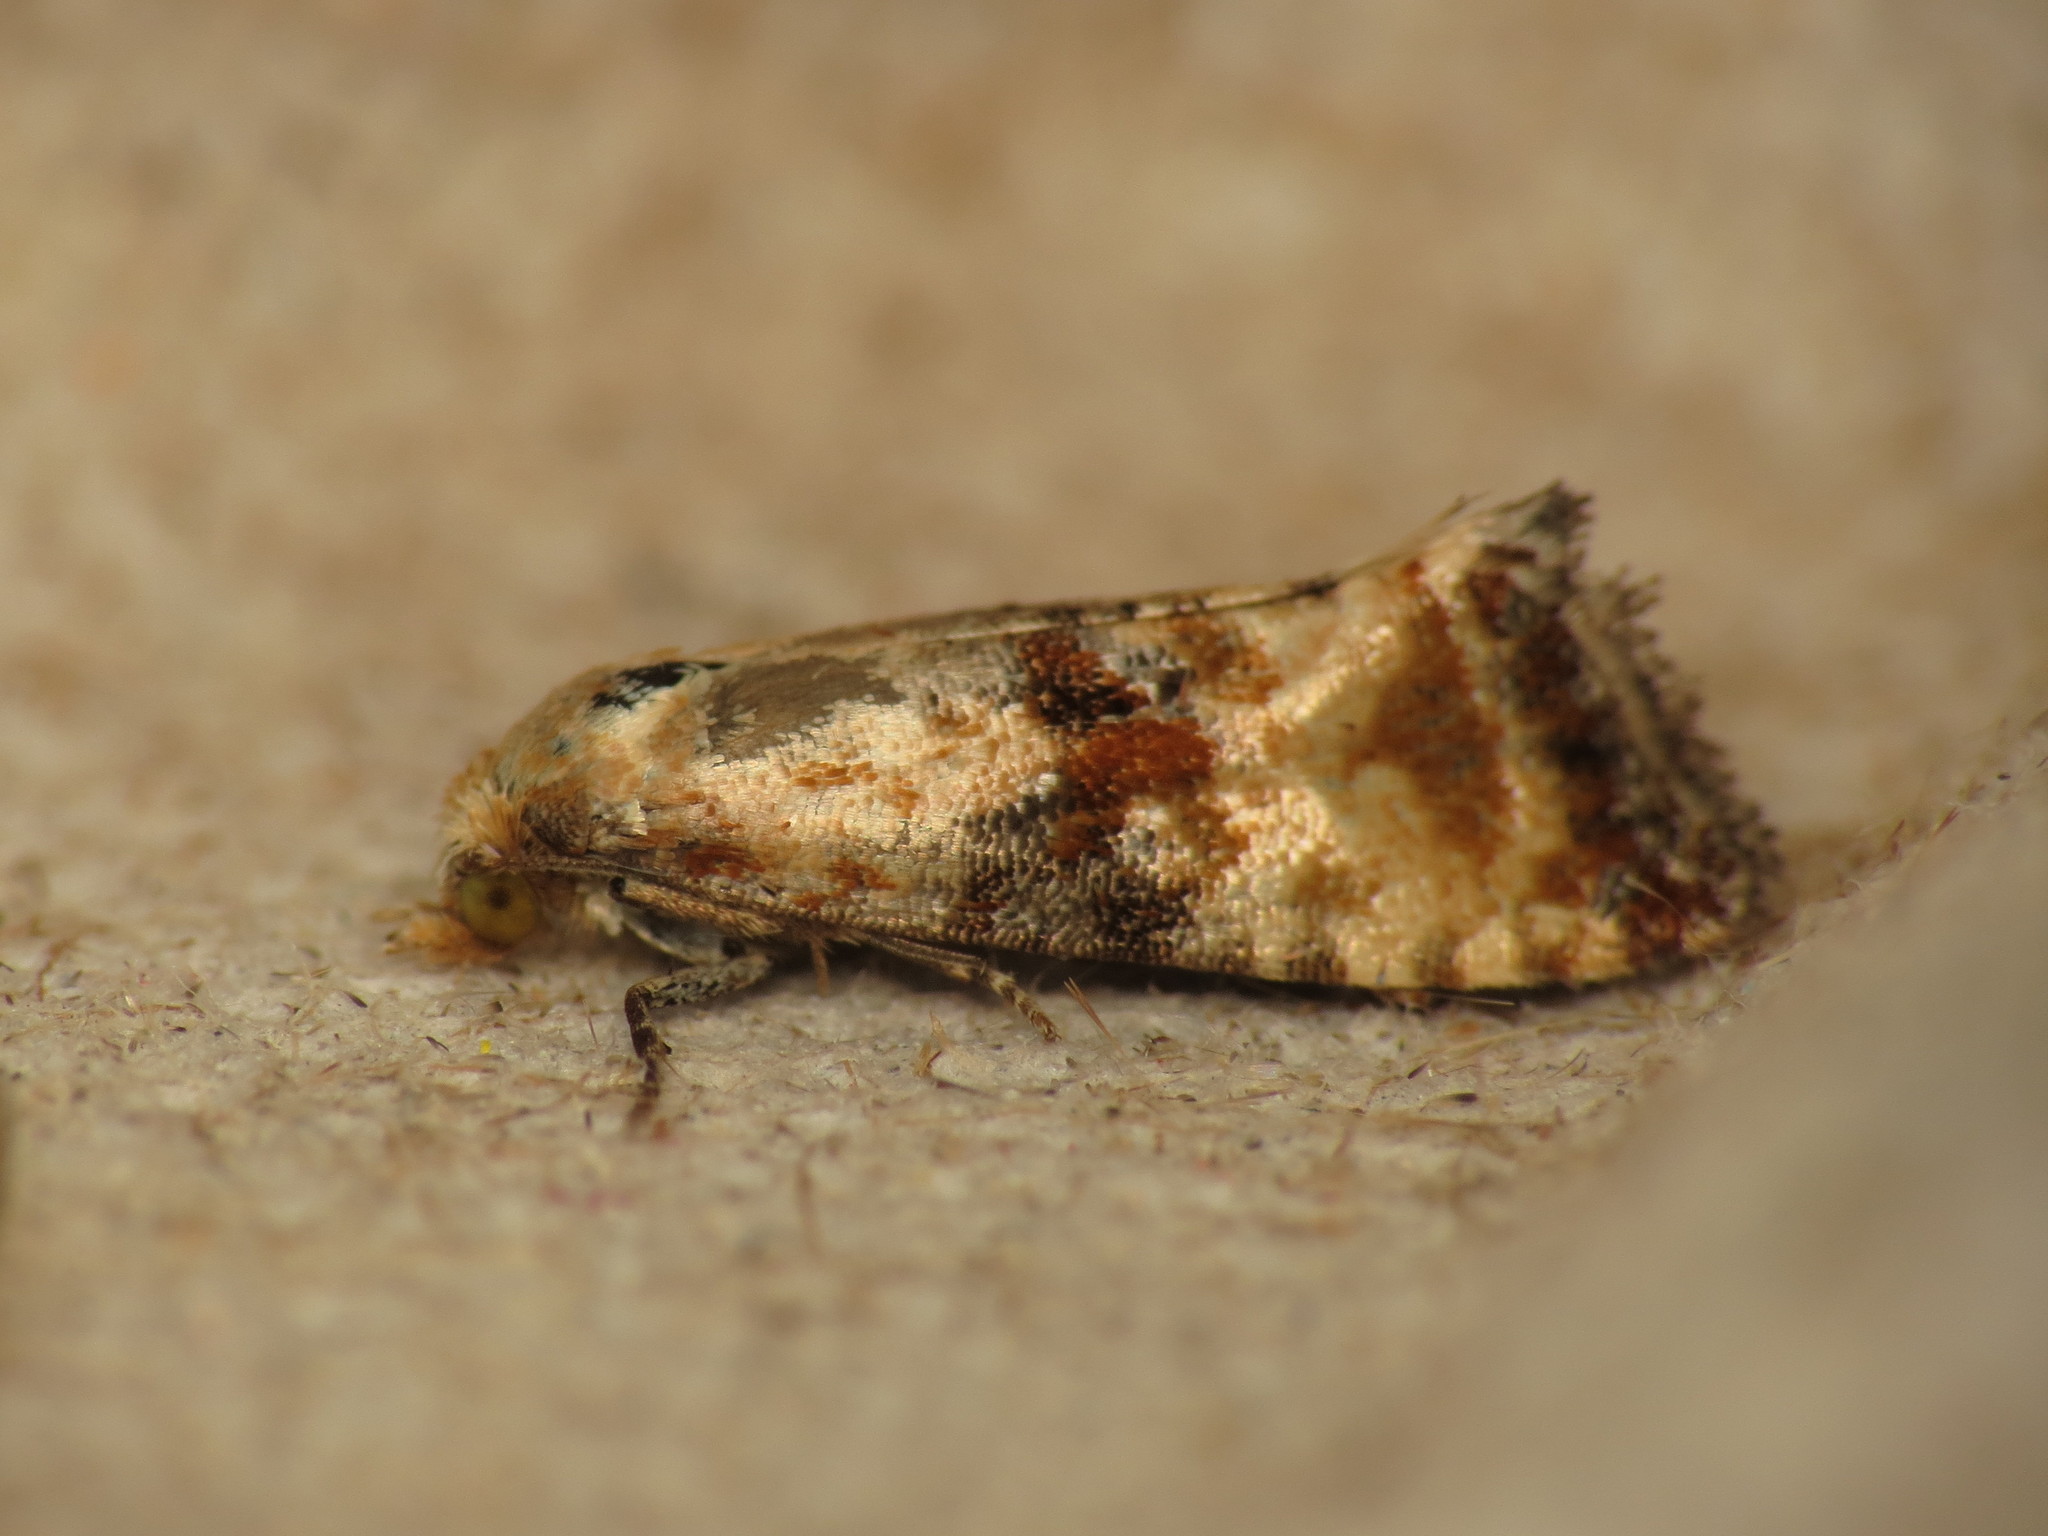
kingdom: Animalia
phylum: Arthropoda
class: Insecta
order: Lepidoptera
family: Tortricidae
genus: Eupoecilia
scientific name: Eupoecilia angustana
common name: Marbled conch
